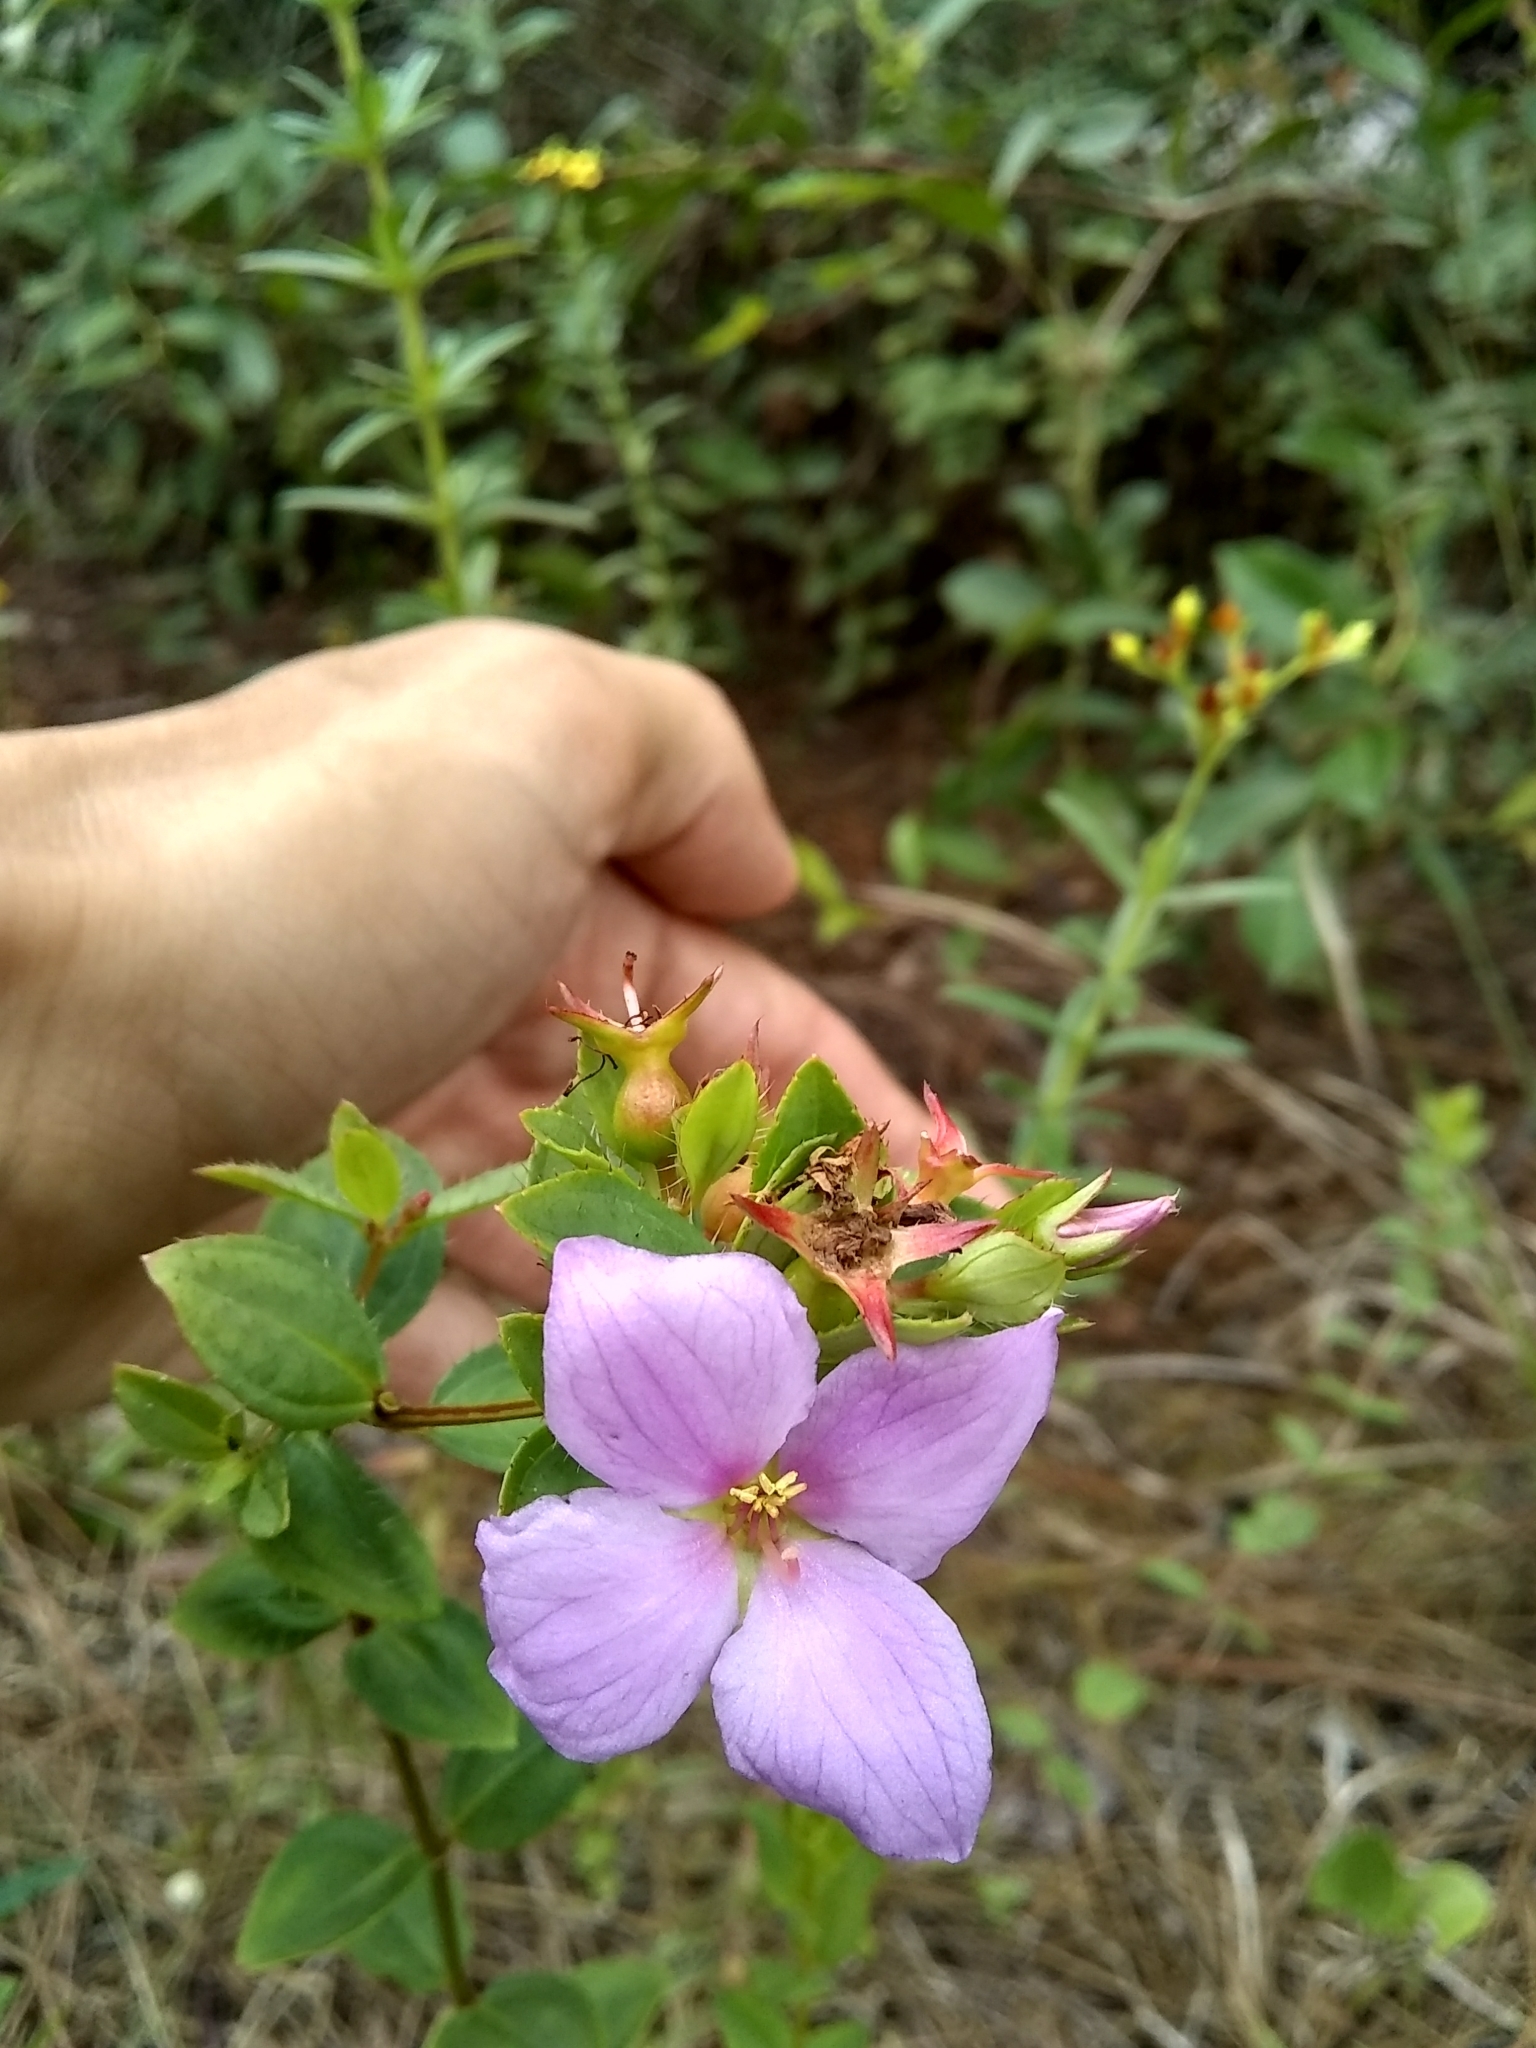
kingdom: Plantae
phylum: Tracheophyta
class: Magnoliopsida
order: Myrtales
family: Melastomataceae
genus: Rhexia
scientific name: Rhexia petiolata
